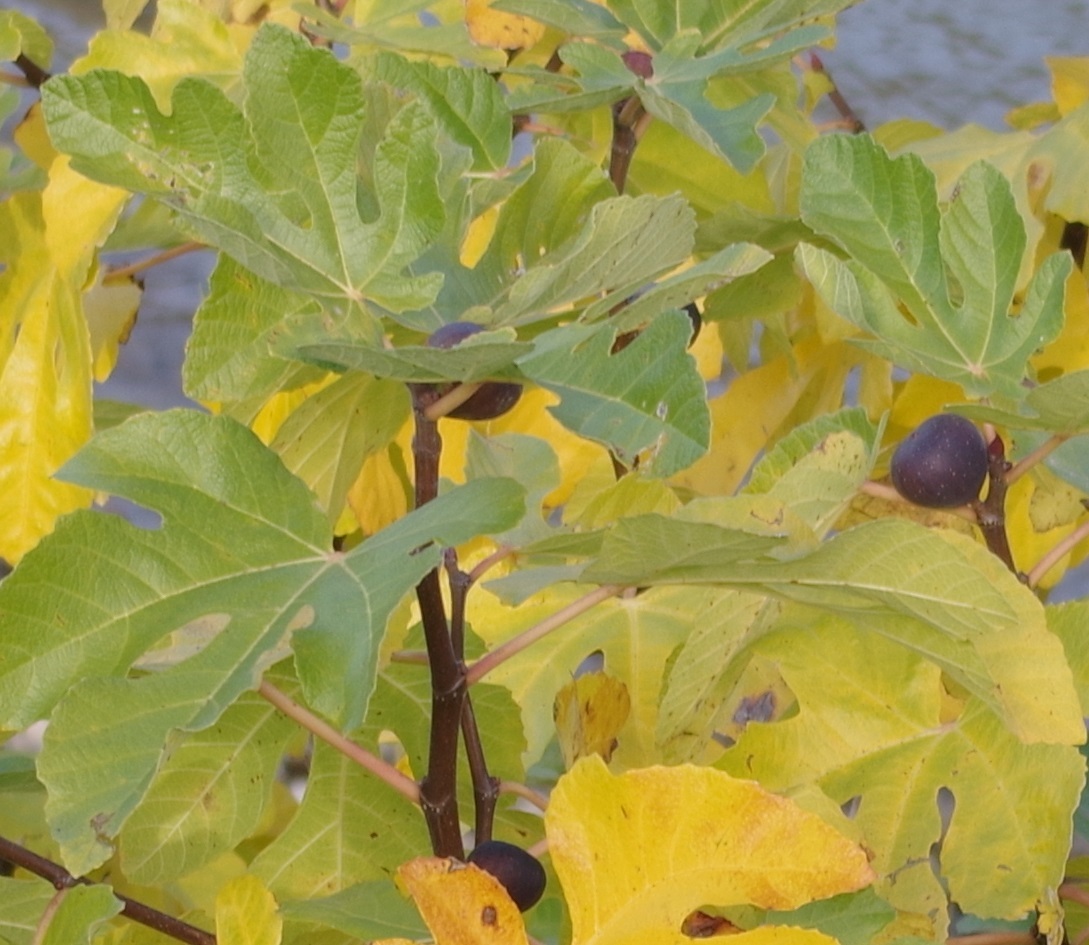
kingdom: Plantae
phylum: Tracheophyta
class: Magnoliopsida
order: Rosales
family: Moraceae
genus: Ficus
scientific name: Ficus carica
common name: Fig
